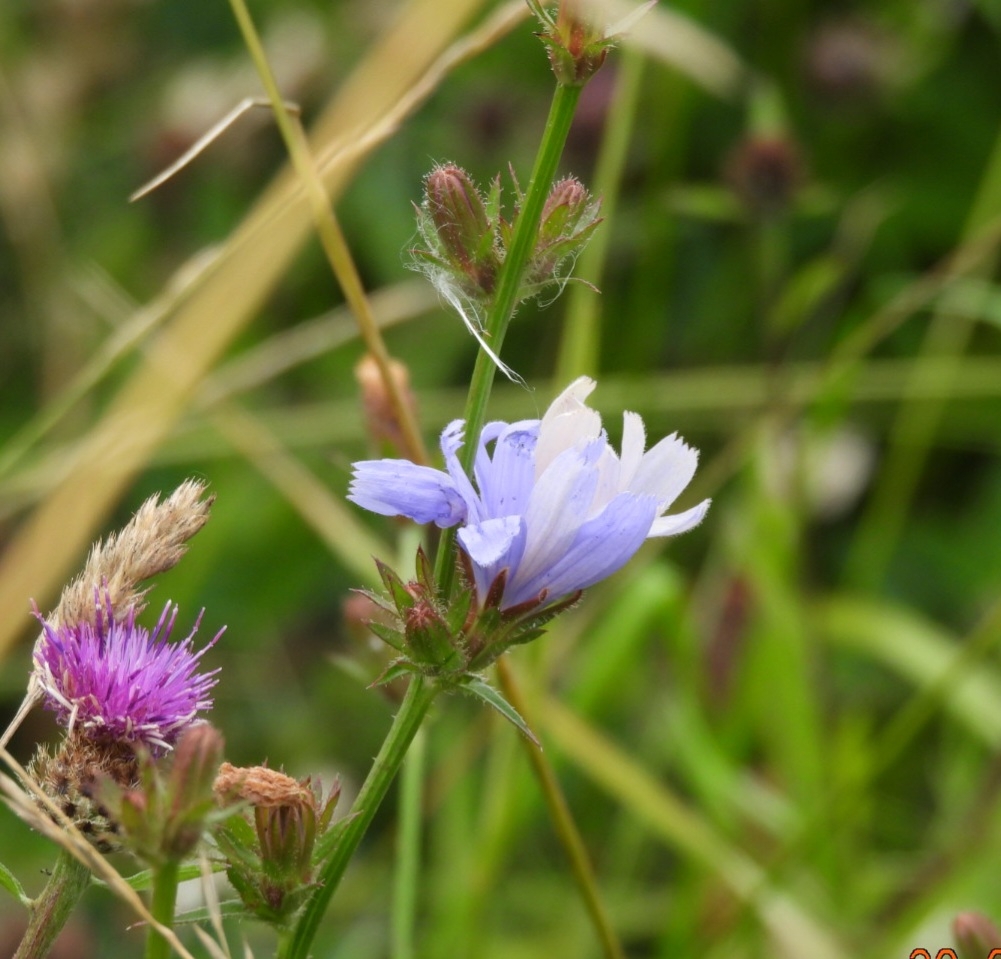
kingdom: Plantae
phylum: Tracheophyta
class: Magnoliopsida
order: Asterales
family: Asteraceae
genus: Cichorium
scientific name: Cichorium intybus
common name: Chicory
